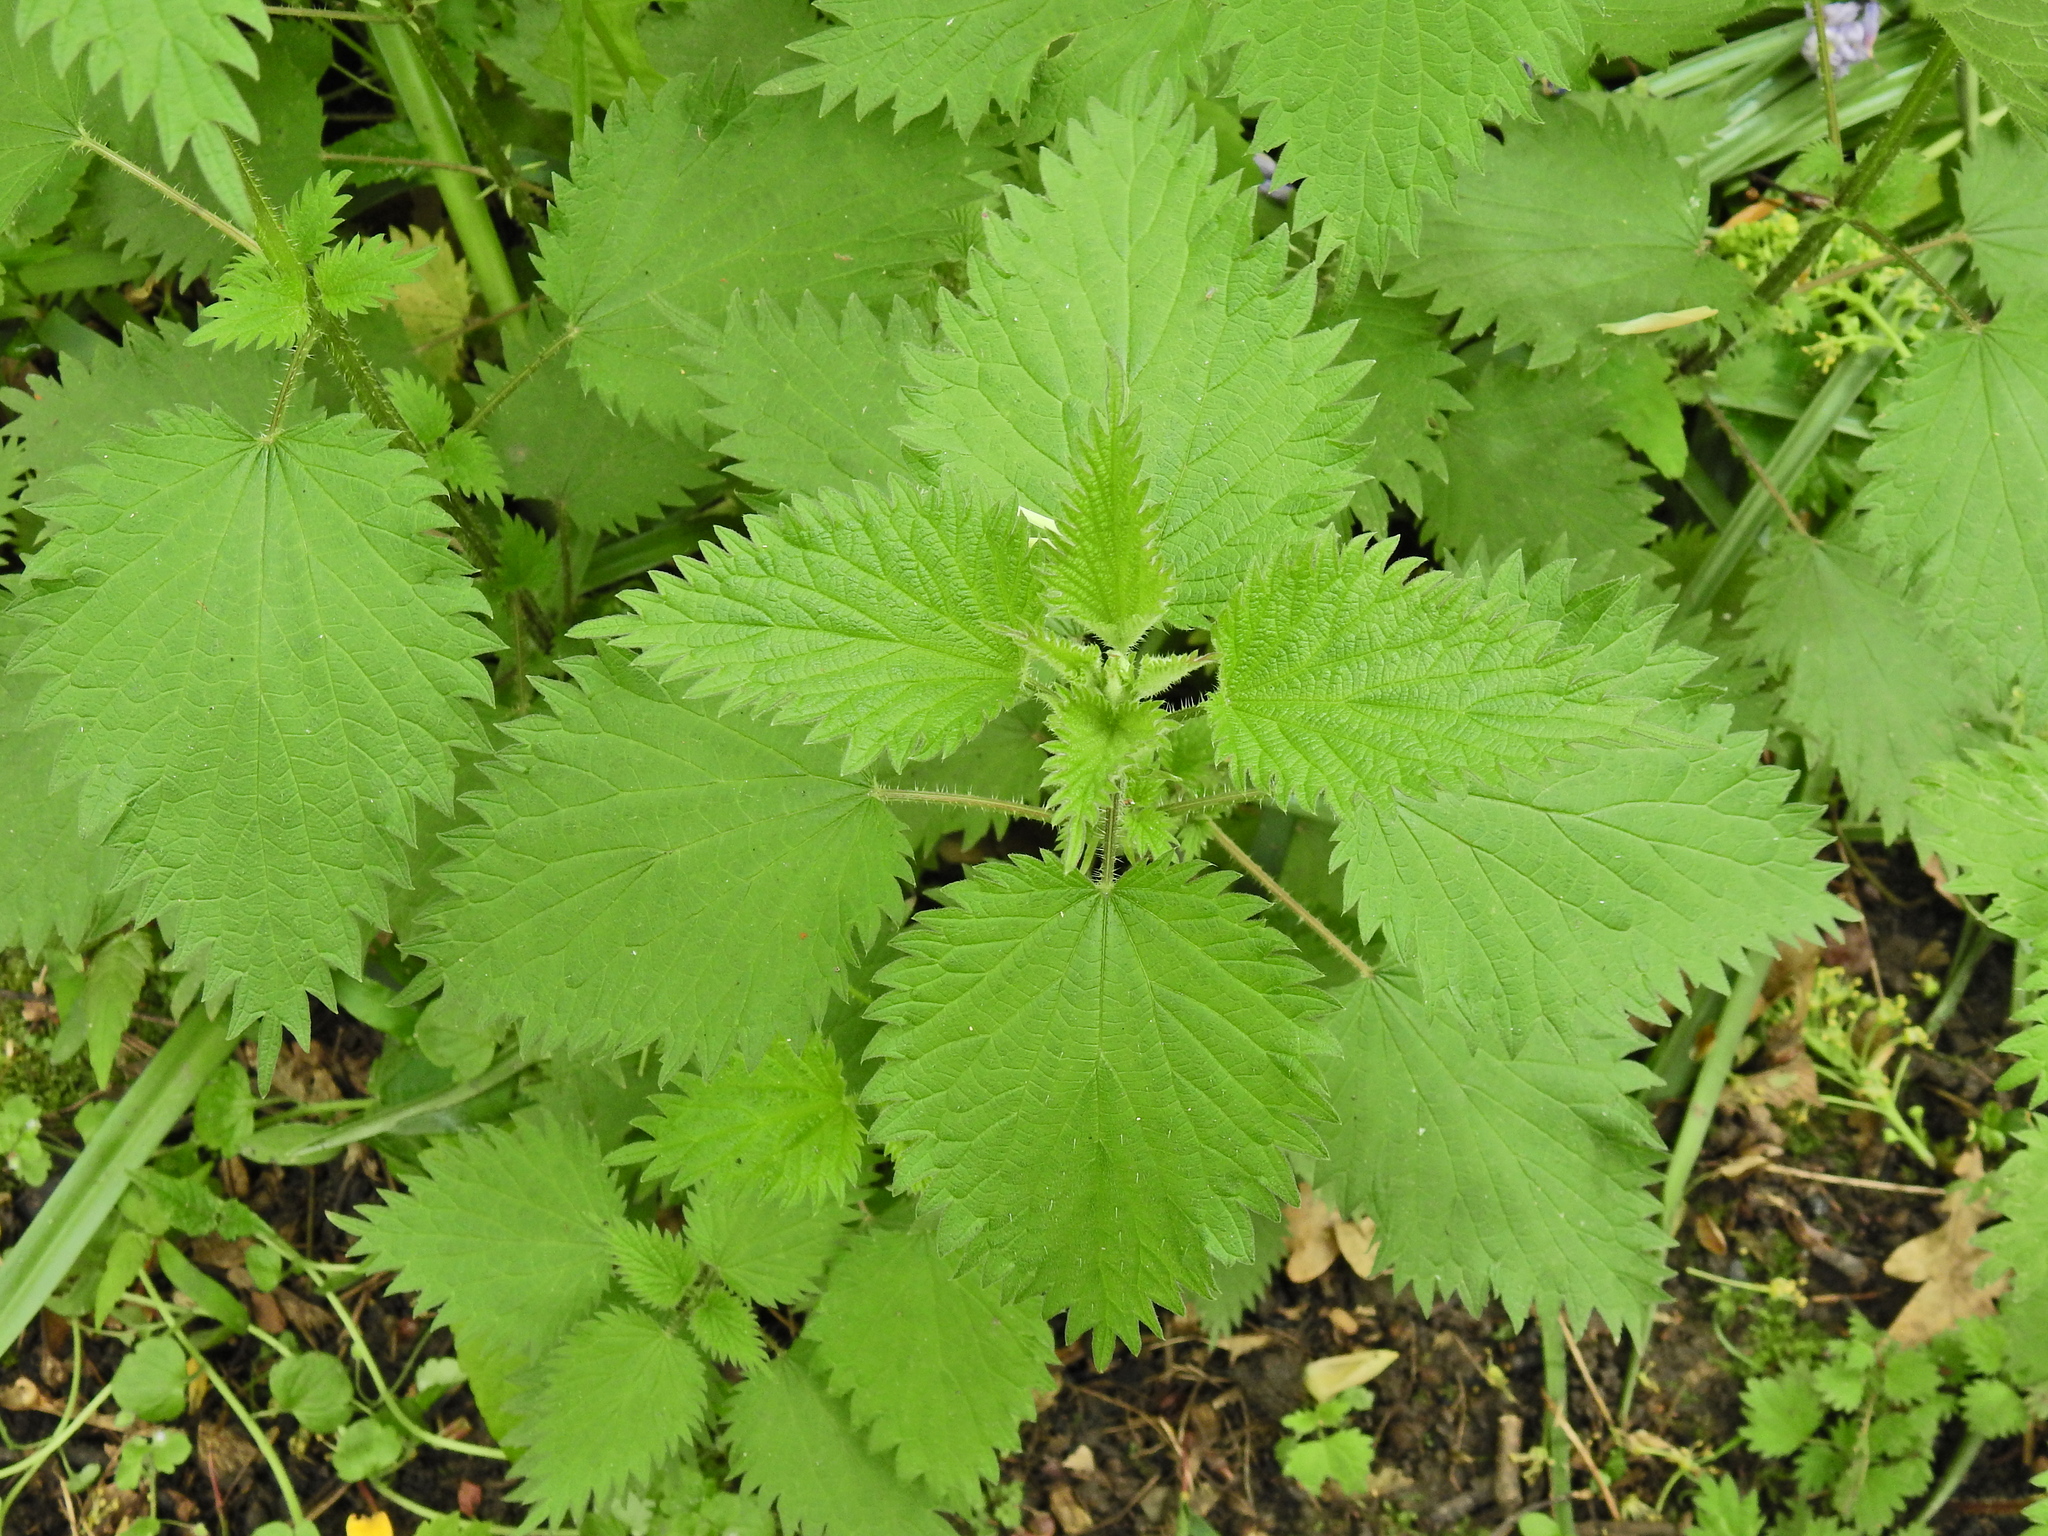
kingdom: Plantae
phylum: Tracheophyta
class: Magnoliopsida
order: Rosales
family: Urticaceae
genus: Urtica
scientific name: Urtica dioica
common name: Common nettle
